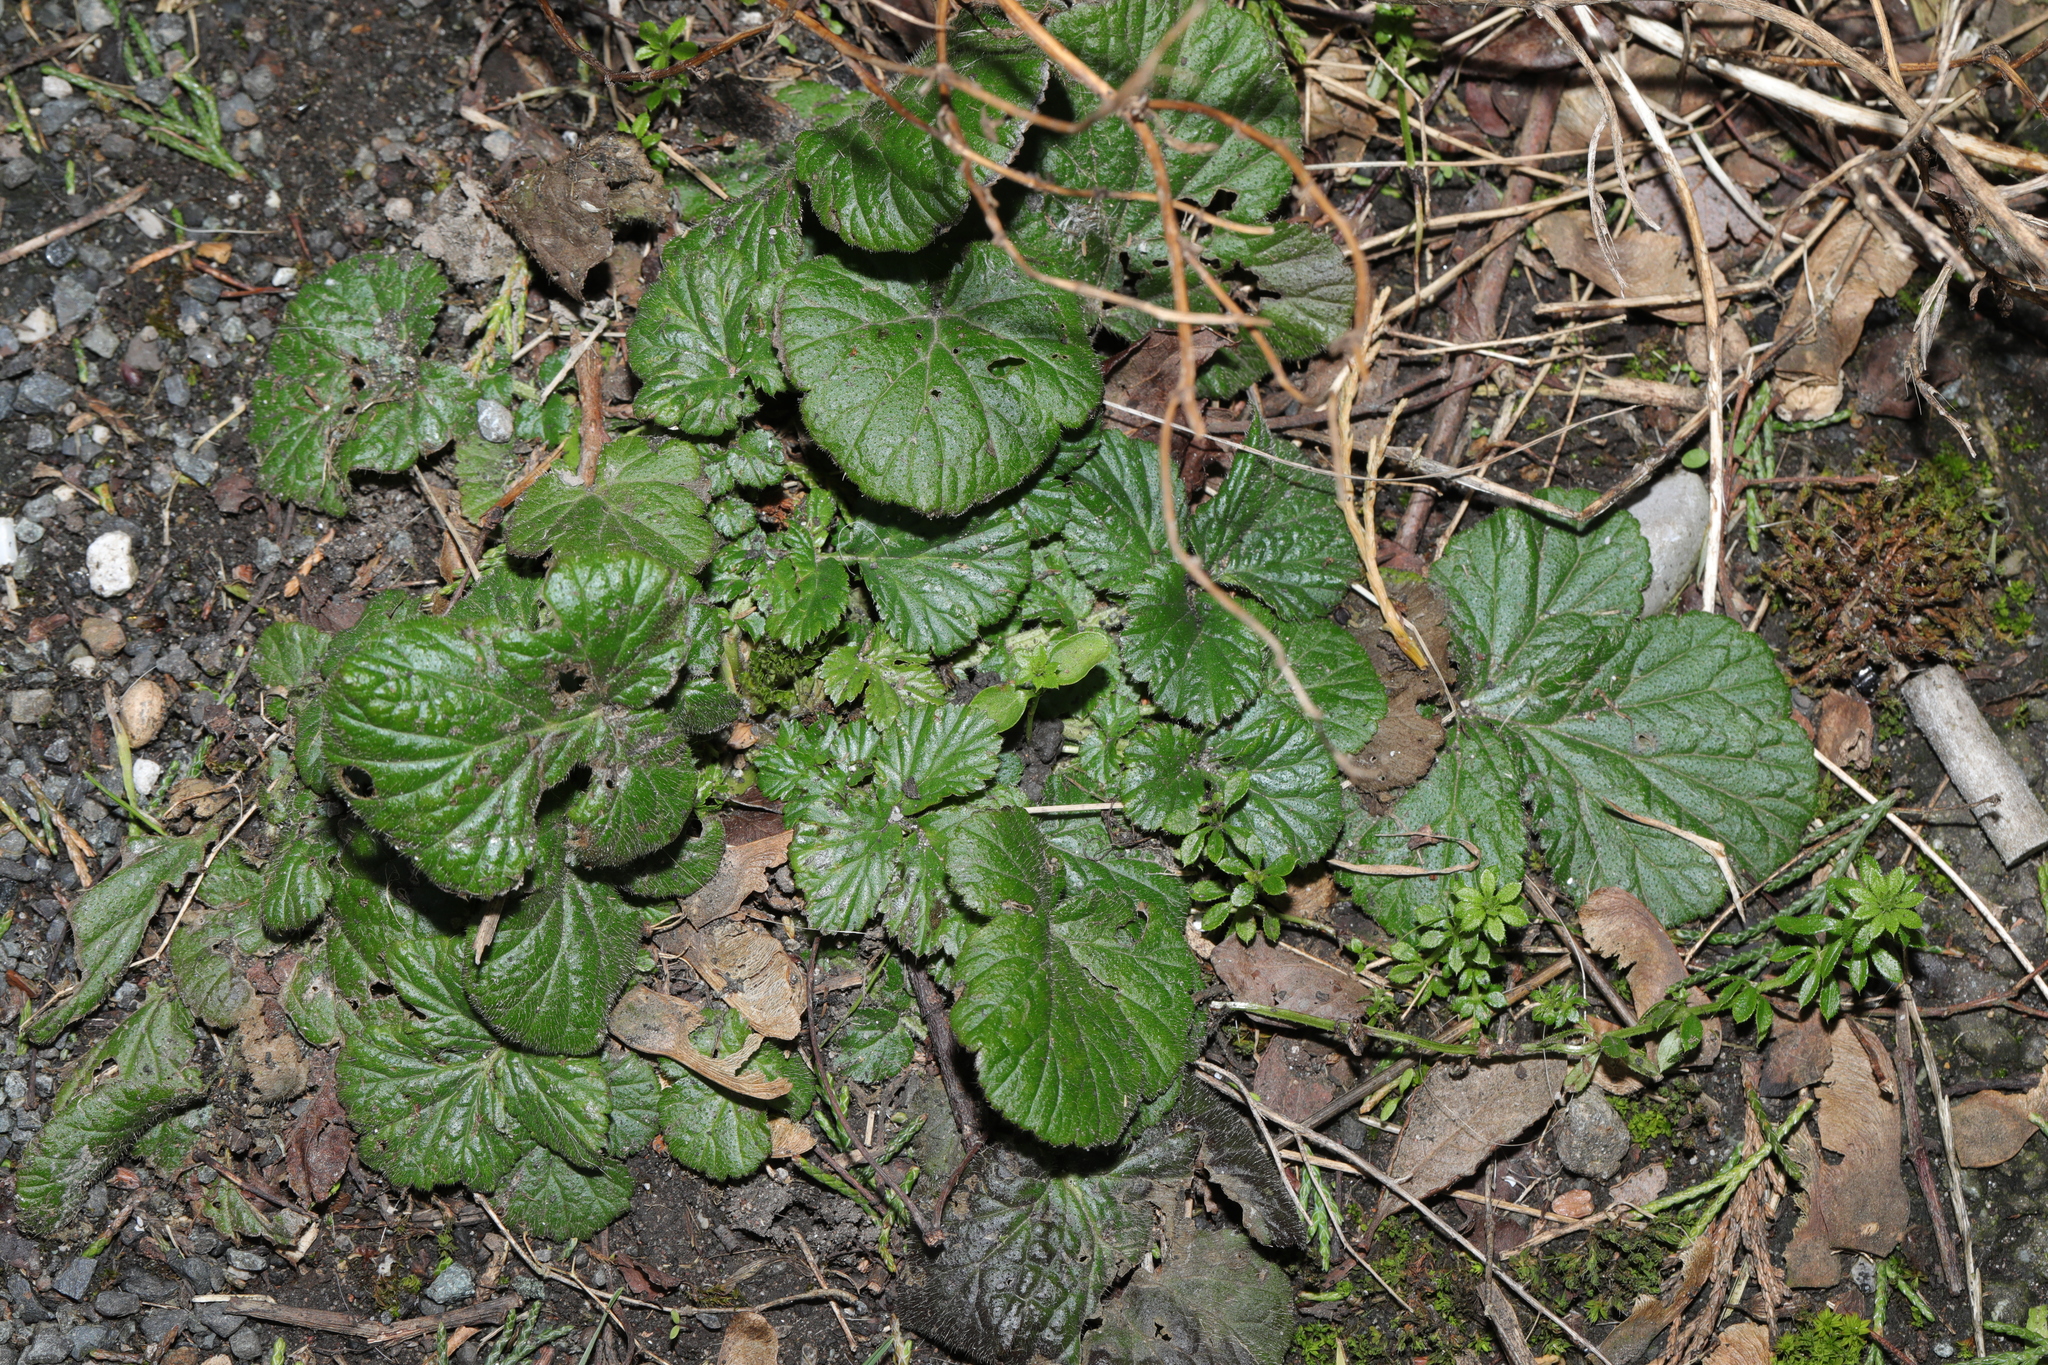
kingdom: Plantae
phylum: Tracheophyta
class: Magnoliopsida
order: Rosales
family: Rosaceae
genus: Geum
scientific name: Geum urbanum
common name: Wood avens
